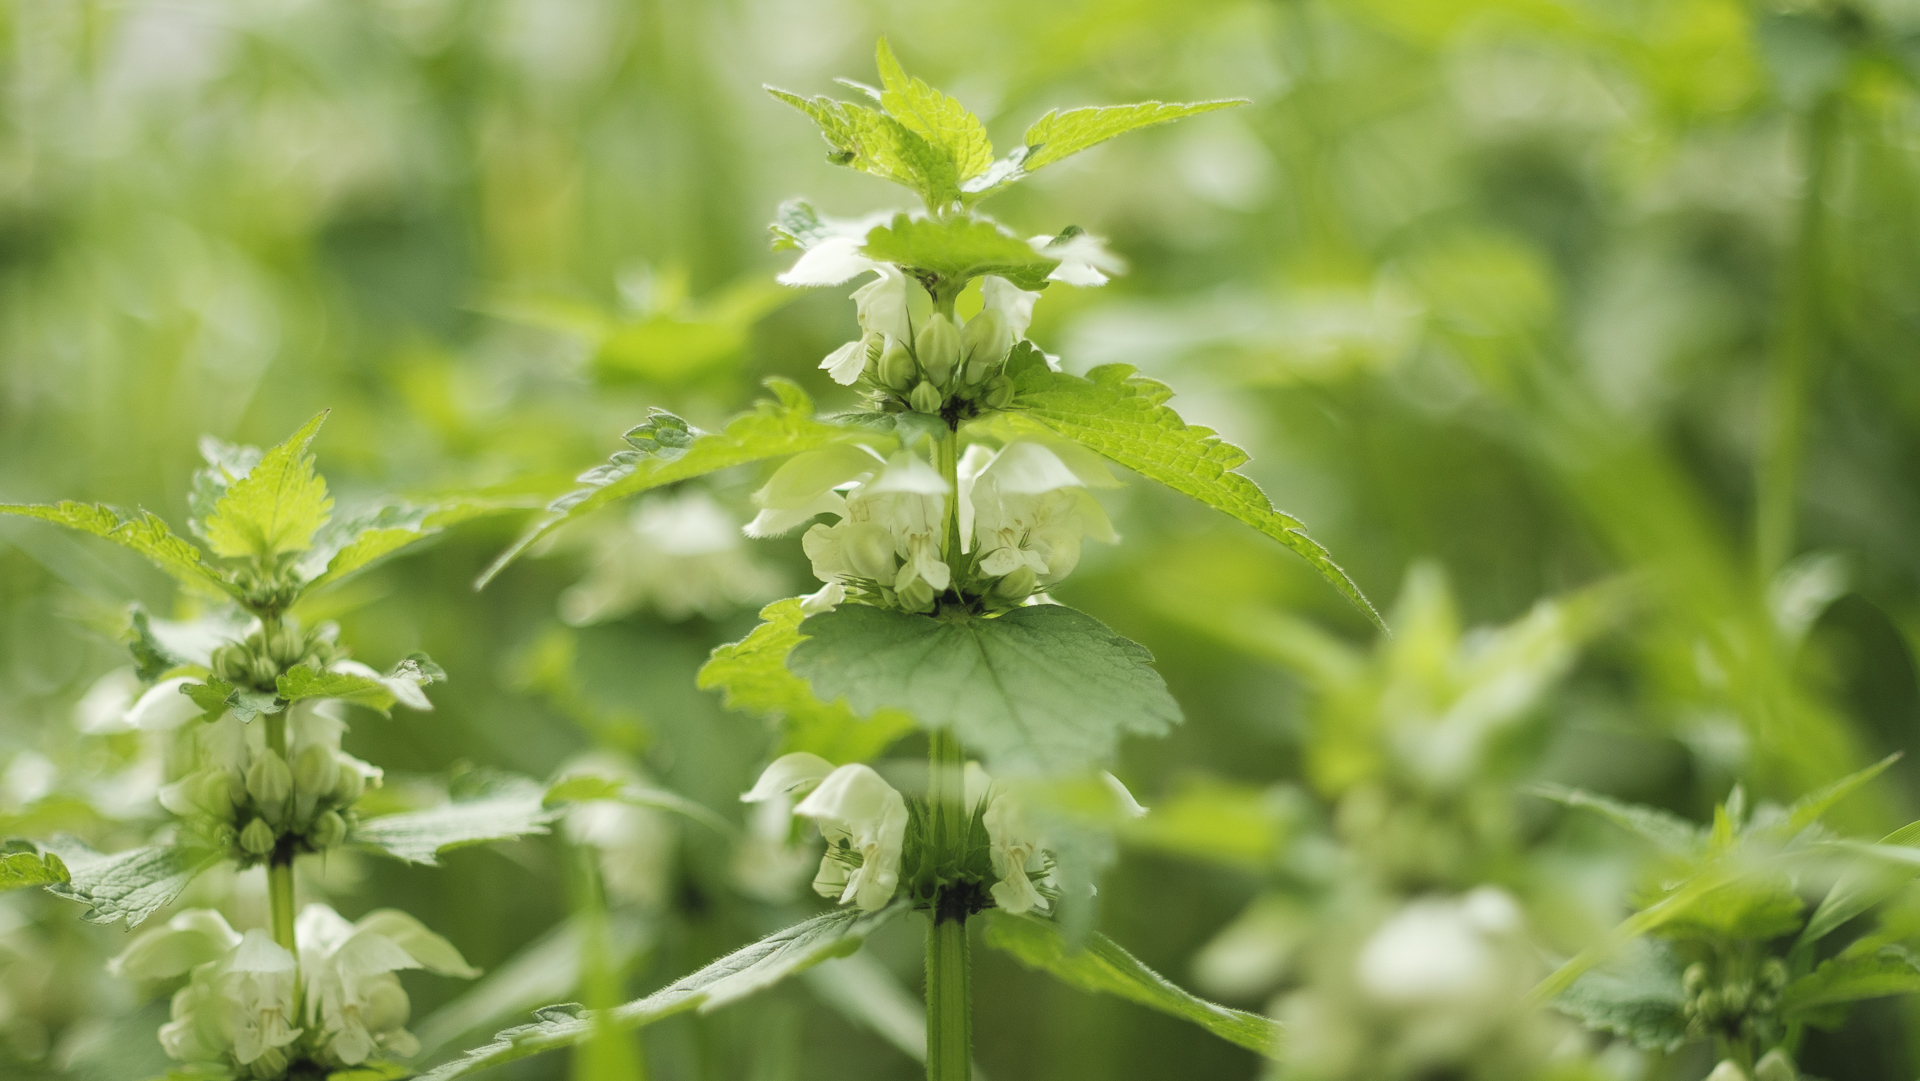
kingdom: Plantae
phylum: Tracheophyta
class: Magnoliopsida
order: Lamiales
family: Lamiaceae
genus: Lamium
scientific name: Lamium album
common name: White dead-nettle
